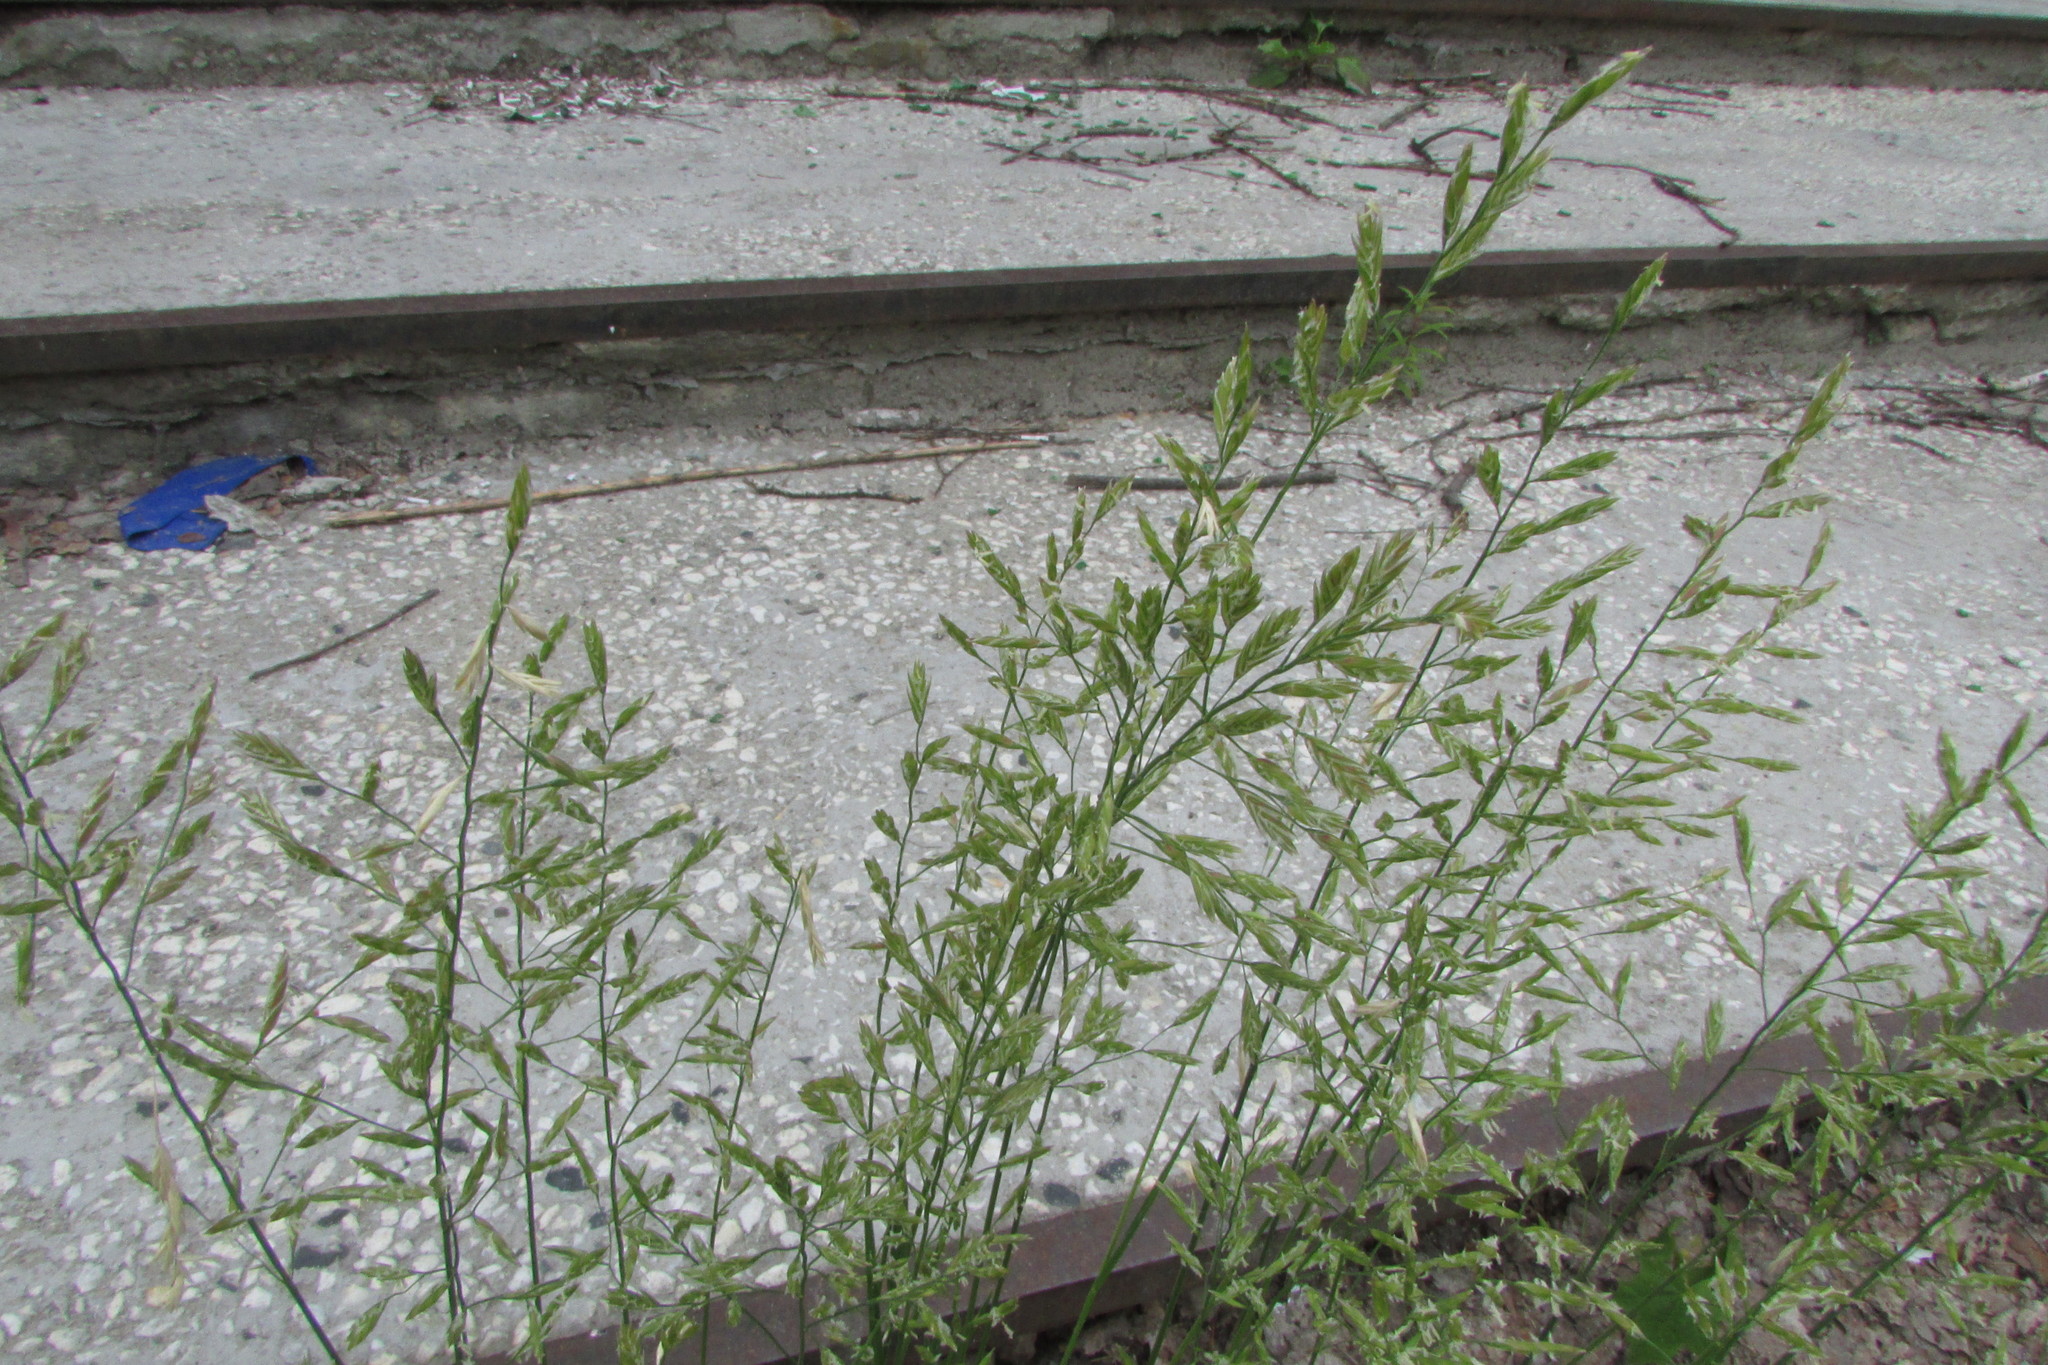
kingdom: Plantae
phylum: Tracheophyta
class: Liliopsida
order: Poales
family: Poaceae
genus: Lolium
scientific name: Lolium pratense
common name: Dover grass
